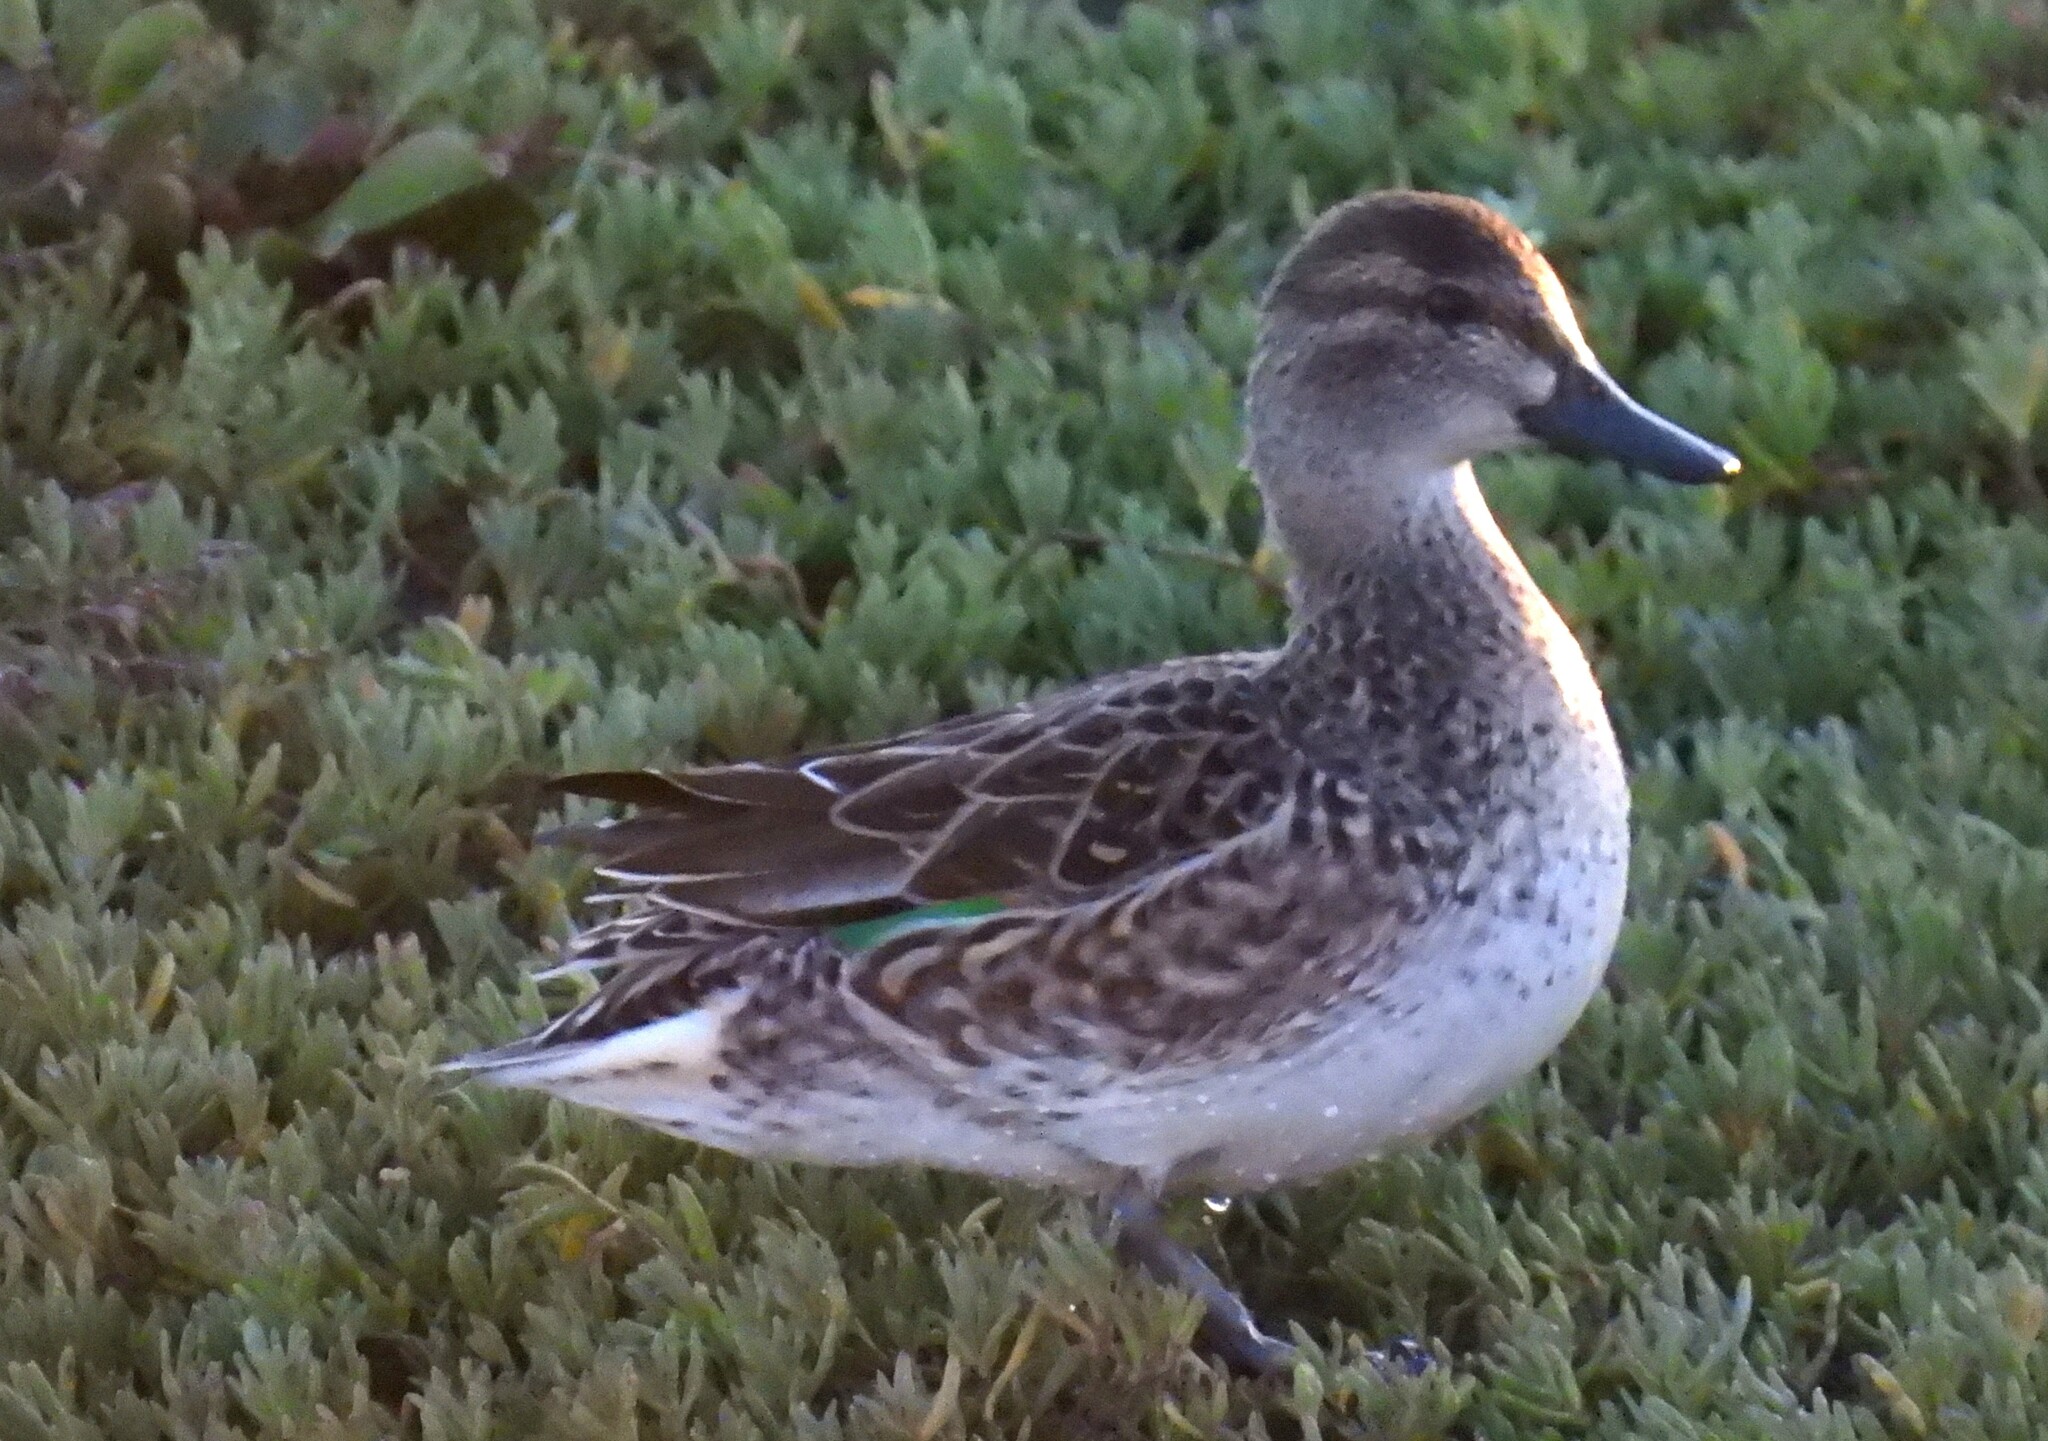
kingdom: Animalia
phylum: Chordata
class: Aves
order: Anseriformes
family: Anatidae
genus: Anas
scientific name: Anas crecca
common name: Eurasian teal
